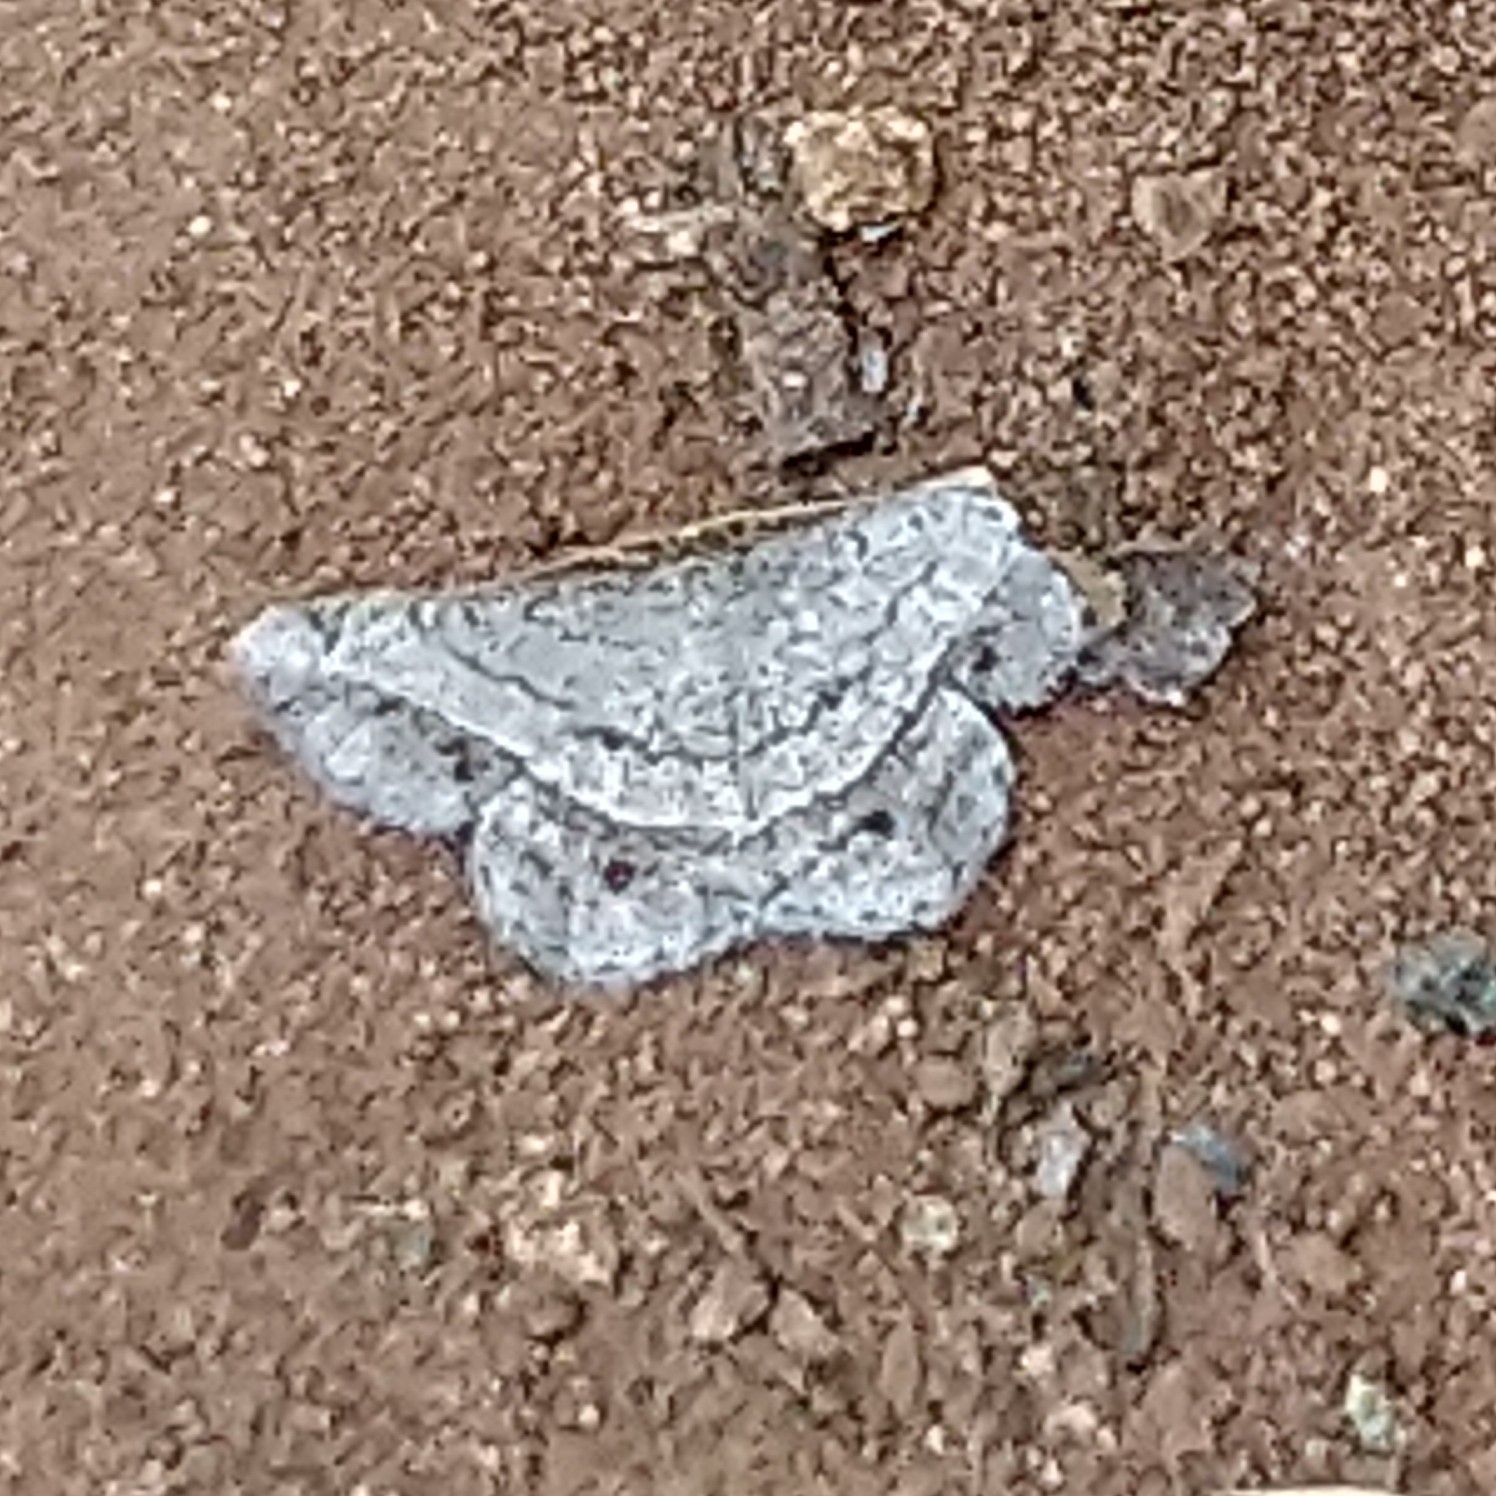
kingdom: Animalia
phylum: Arthropoda
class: Insecta
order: Lepidoptera
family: Geometridae
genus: Isturgia
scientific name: Isturgia supergressa
